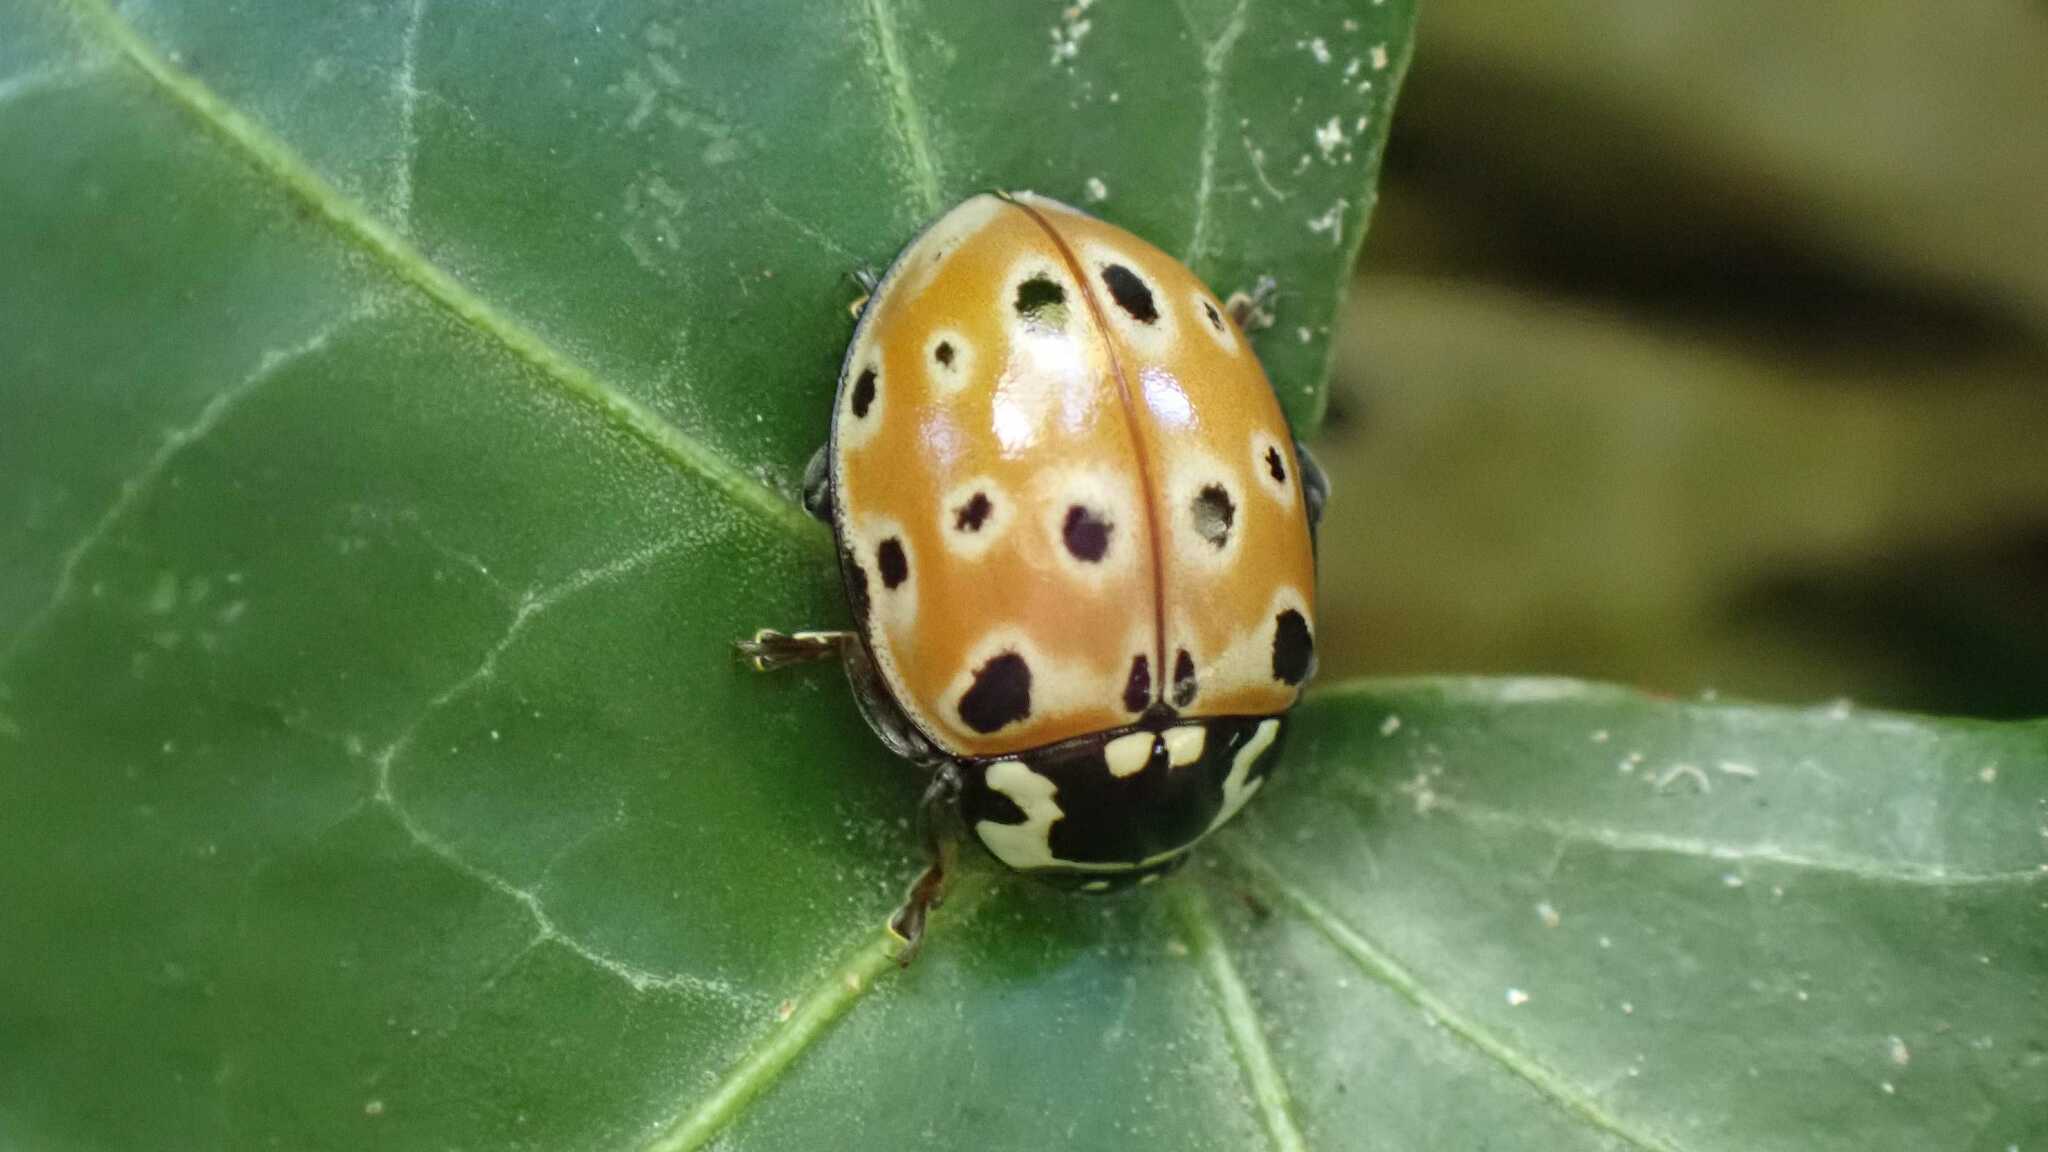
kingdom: Animalia
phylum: Arthropoda
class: Insecta
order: Coleoptera
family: Coccinellidae
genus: Anatis
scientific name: Anatis ocellata
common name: Eyed ladybird
